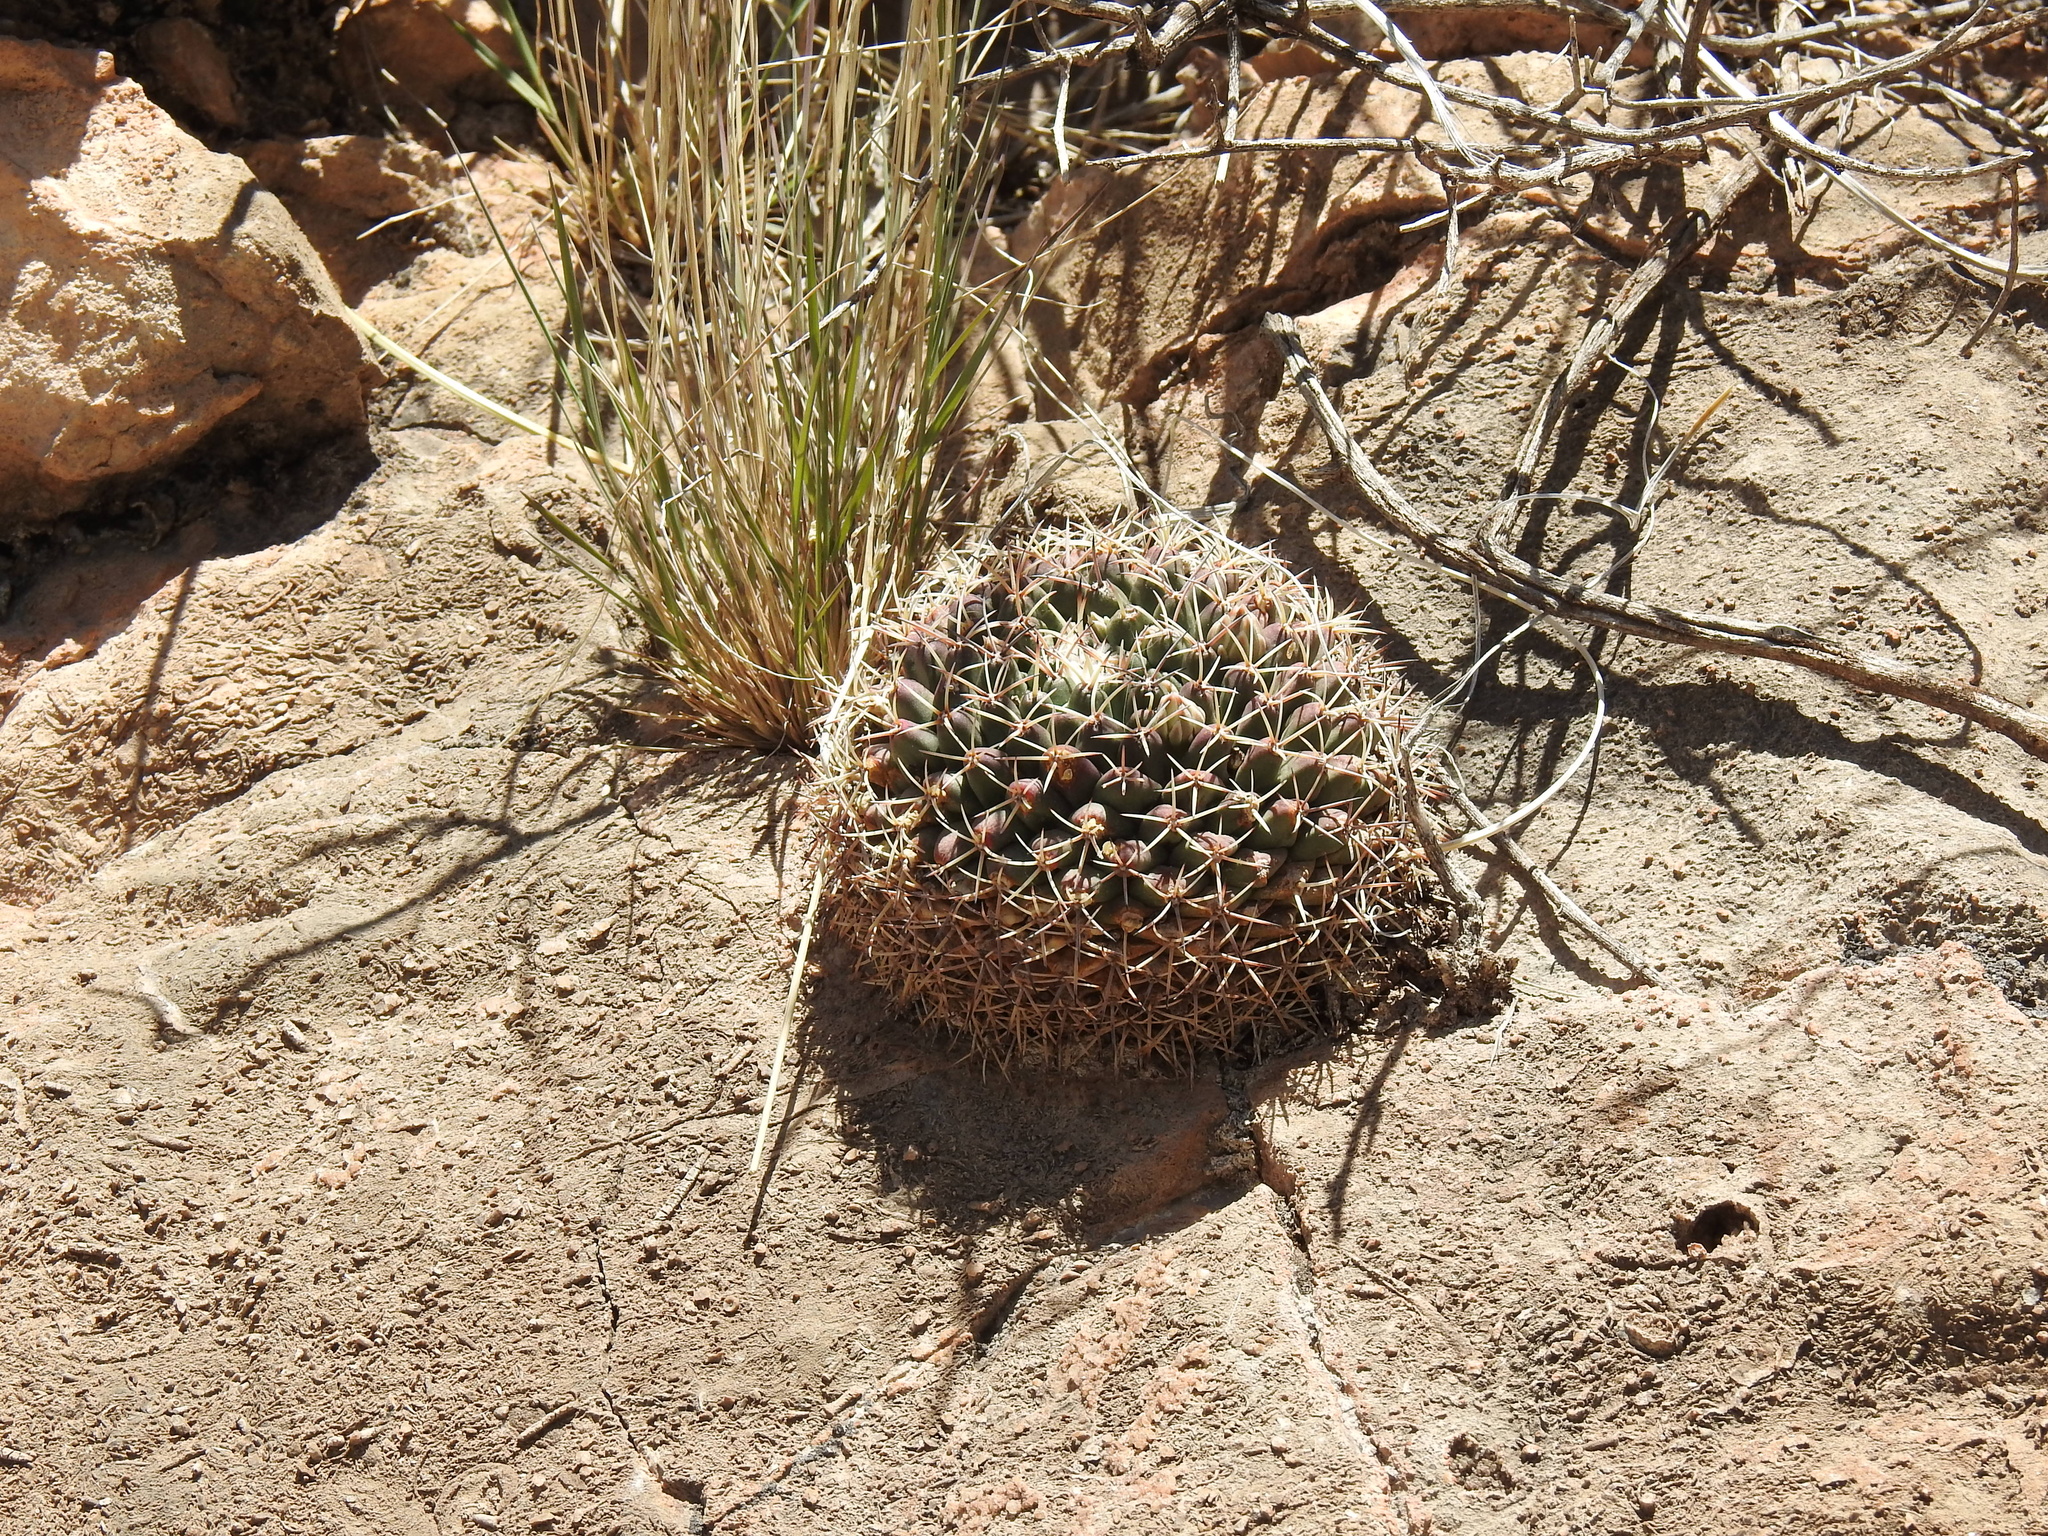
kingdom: Plantae
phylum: Tracheophyta
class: Magnoliopsida
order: Caryophyllales
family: Cactaceae
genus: Mammillaria
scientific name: Mammillaria heyderi
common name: Little nipple cactus
